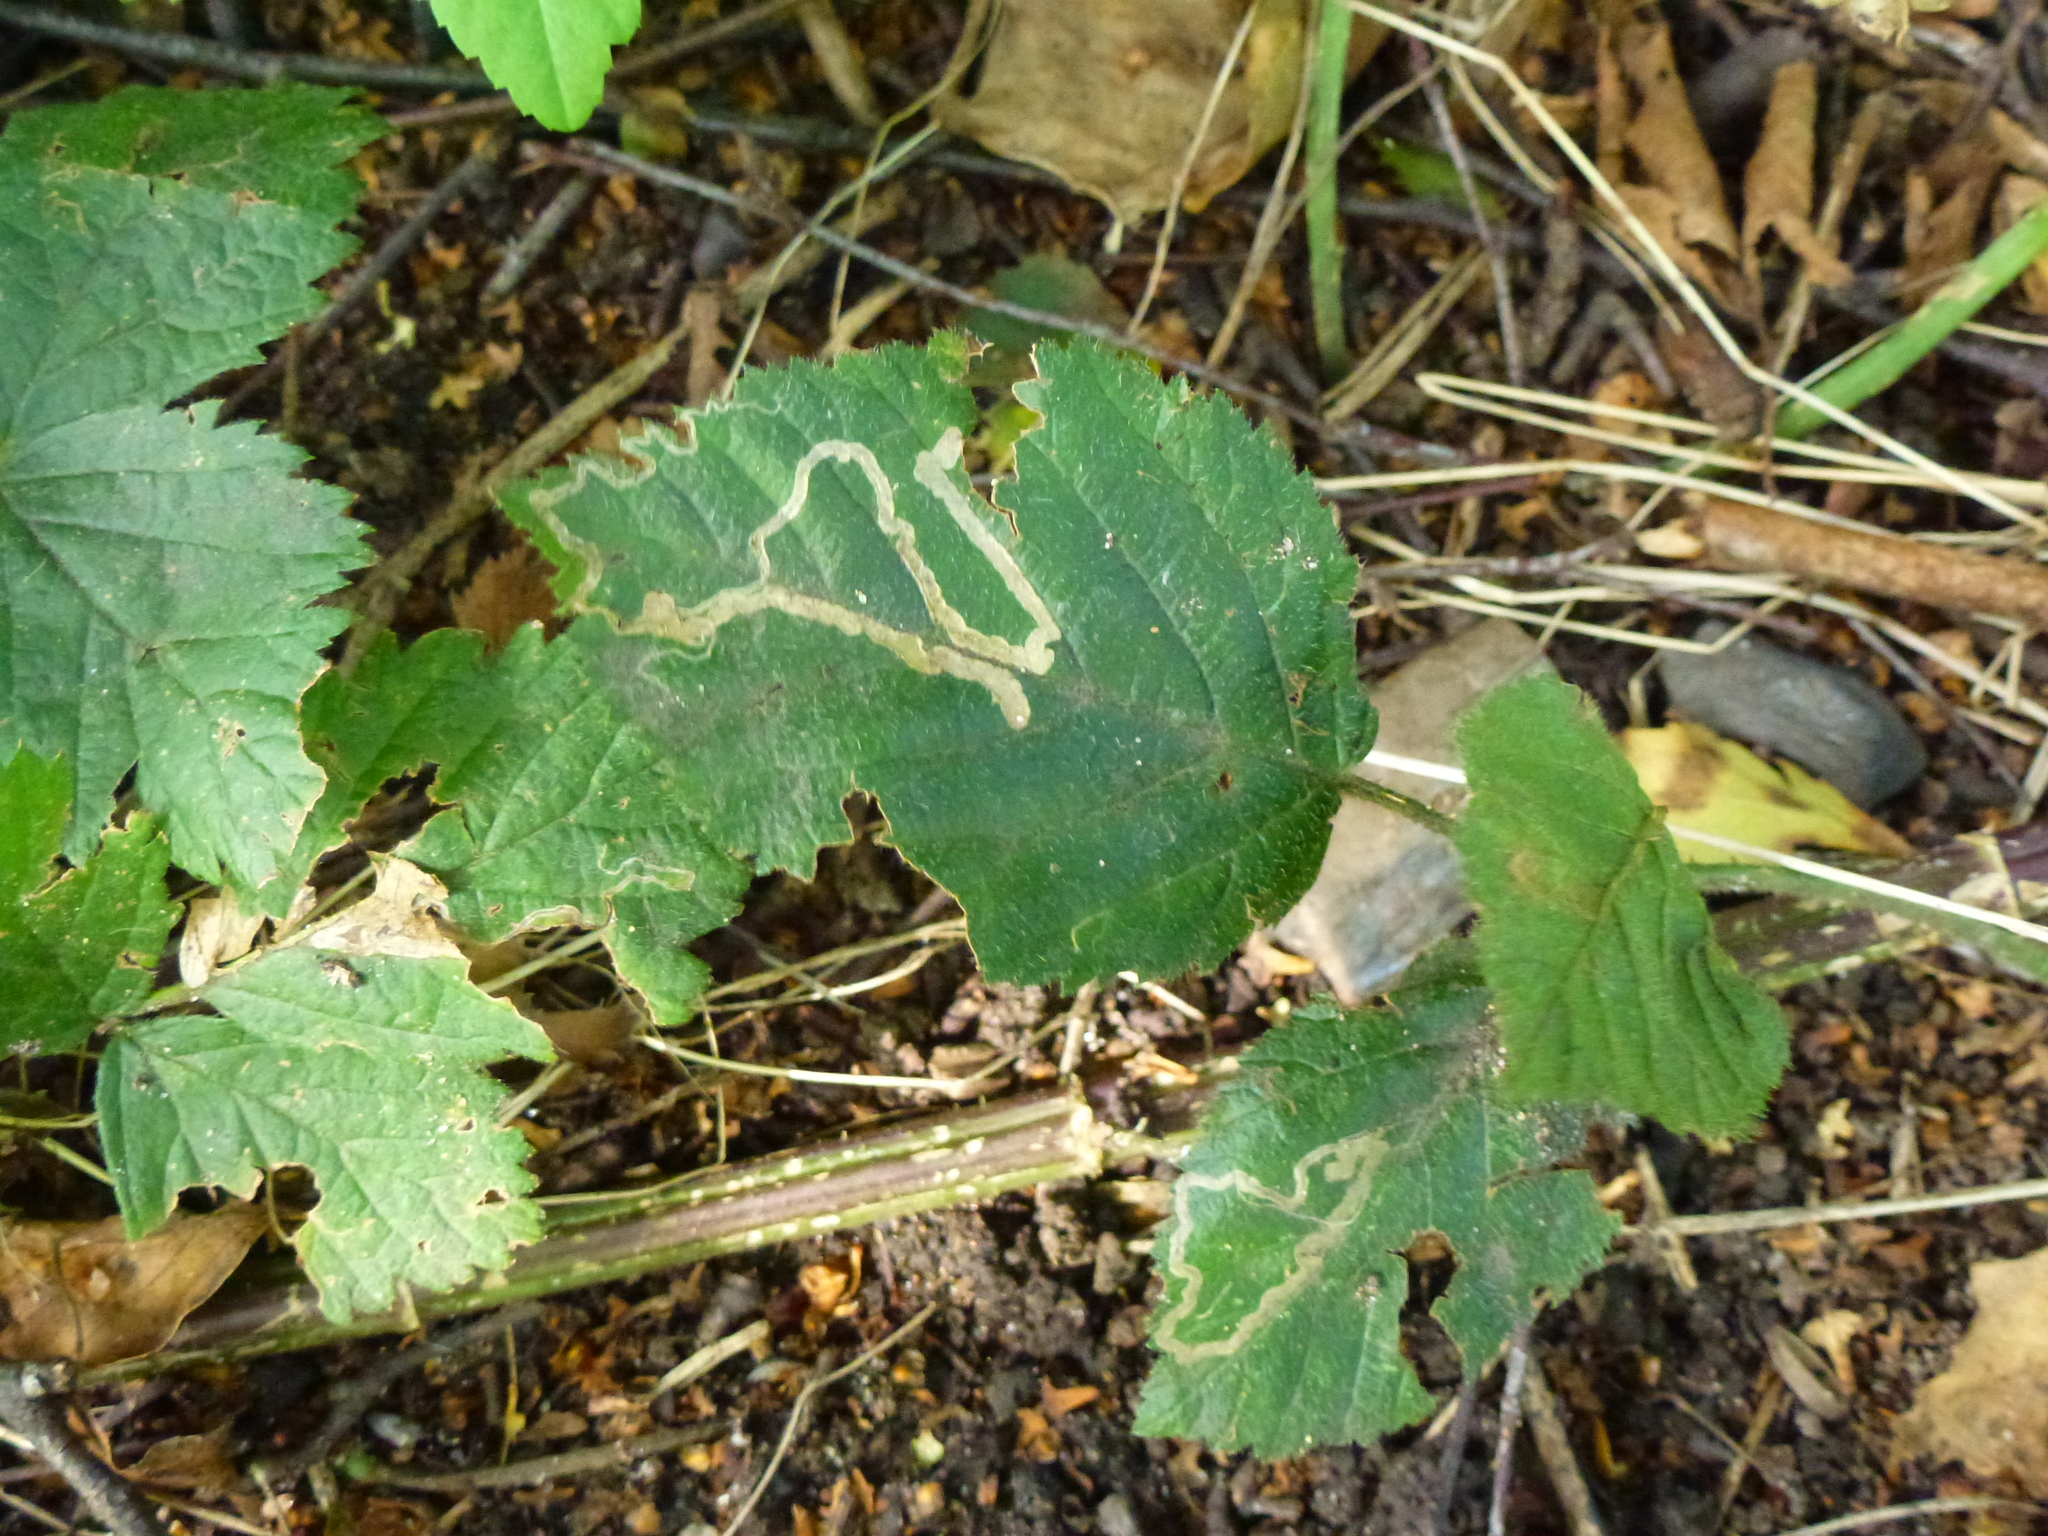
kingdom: Animalia
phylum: Arthropoda
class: Insecta
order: Lepidoptera
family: Nepticulidae
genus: Stigmella
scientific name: Stigmella aurella
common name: Golden pigmy
